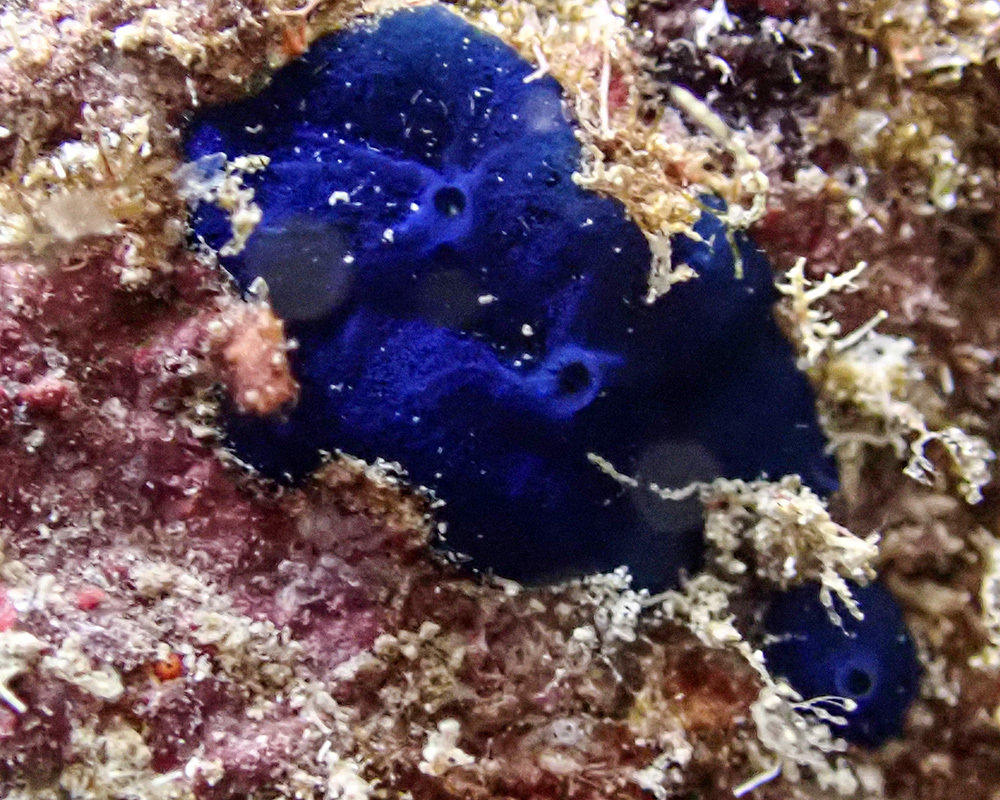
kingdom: Animalia
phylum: Porifera
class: Demospongiae
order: Suberitida
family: Suberitidae
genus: Terpios
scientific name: Terpios gelatinosus
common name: Blue encrusting sponge
